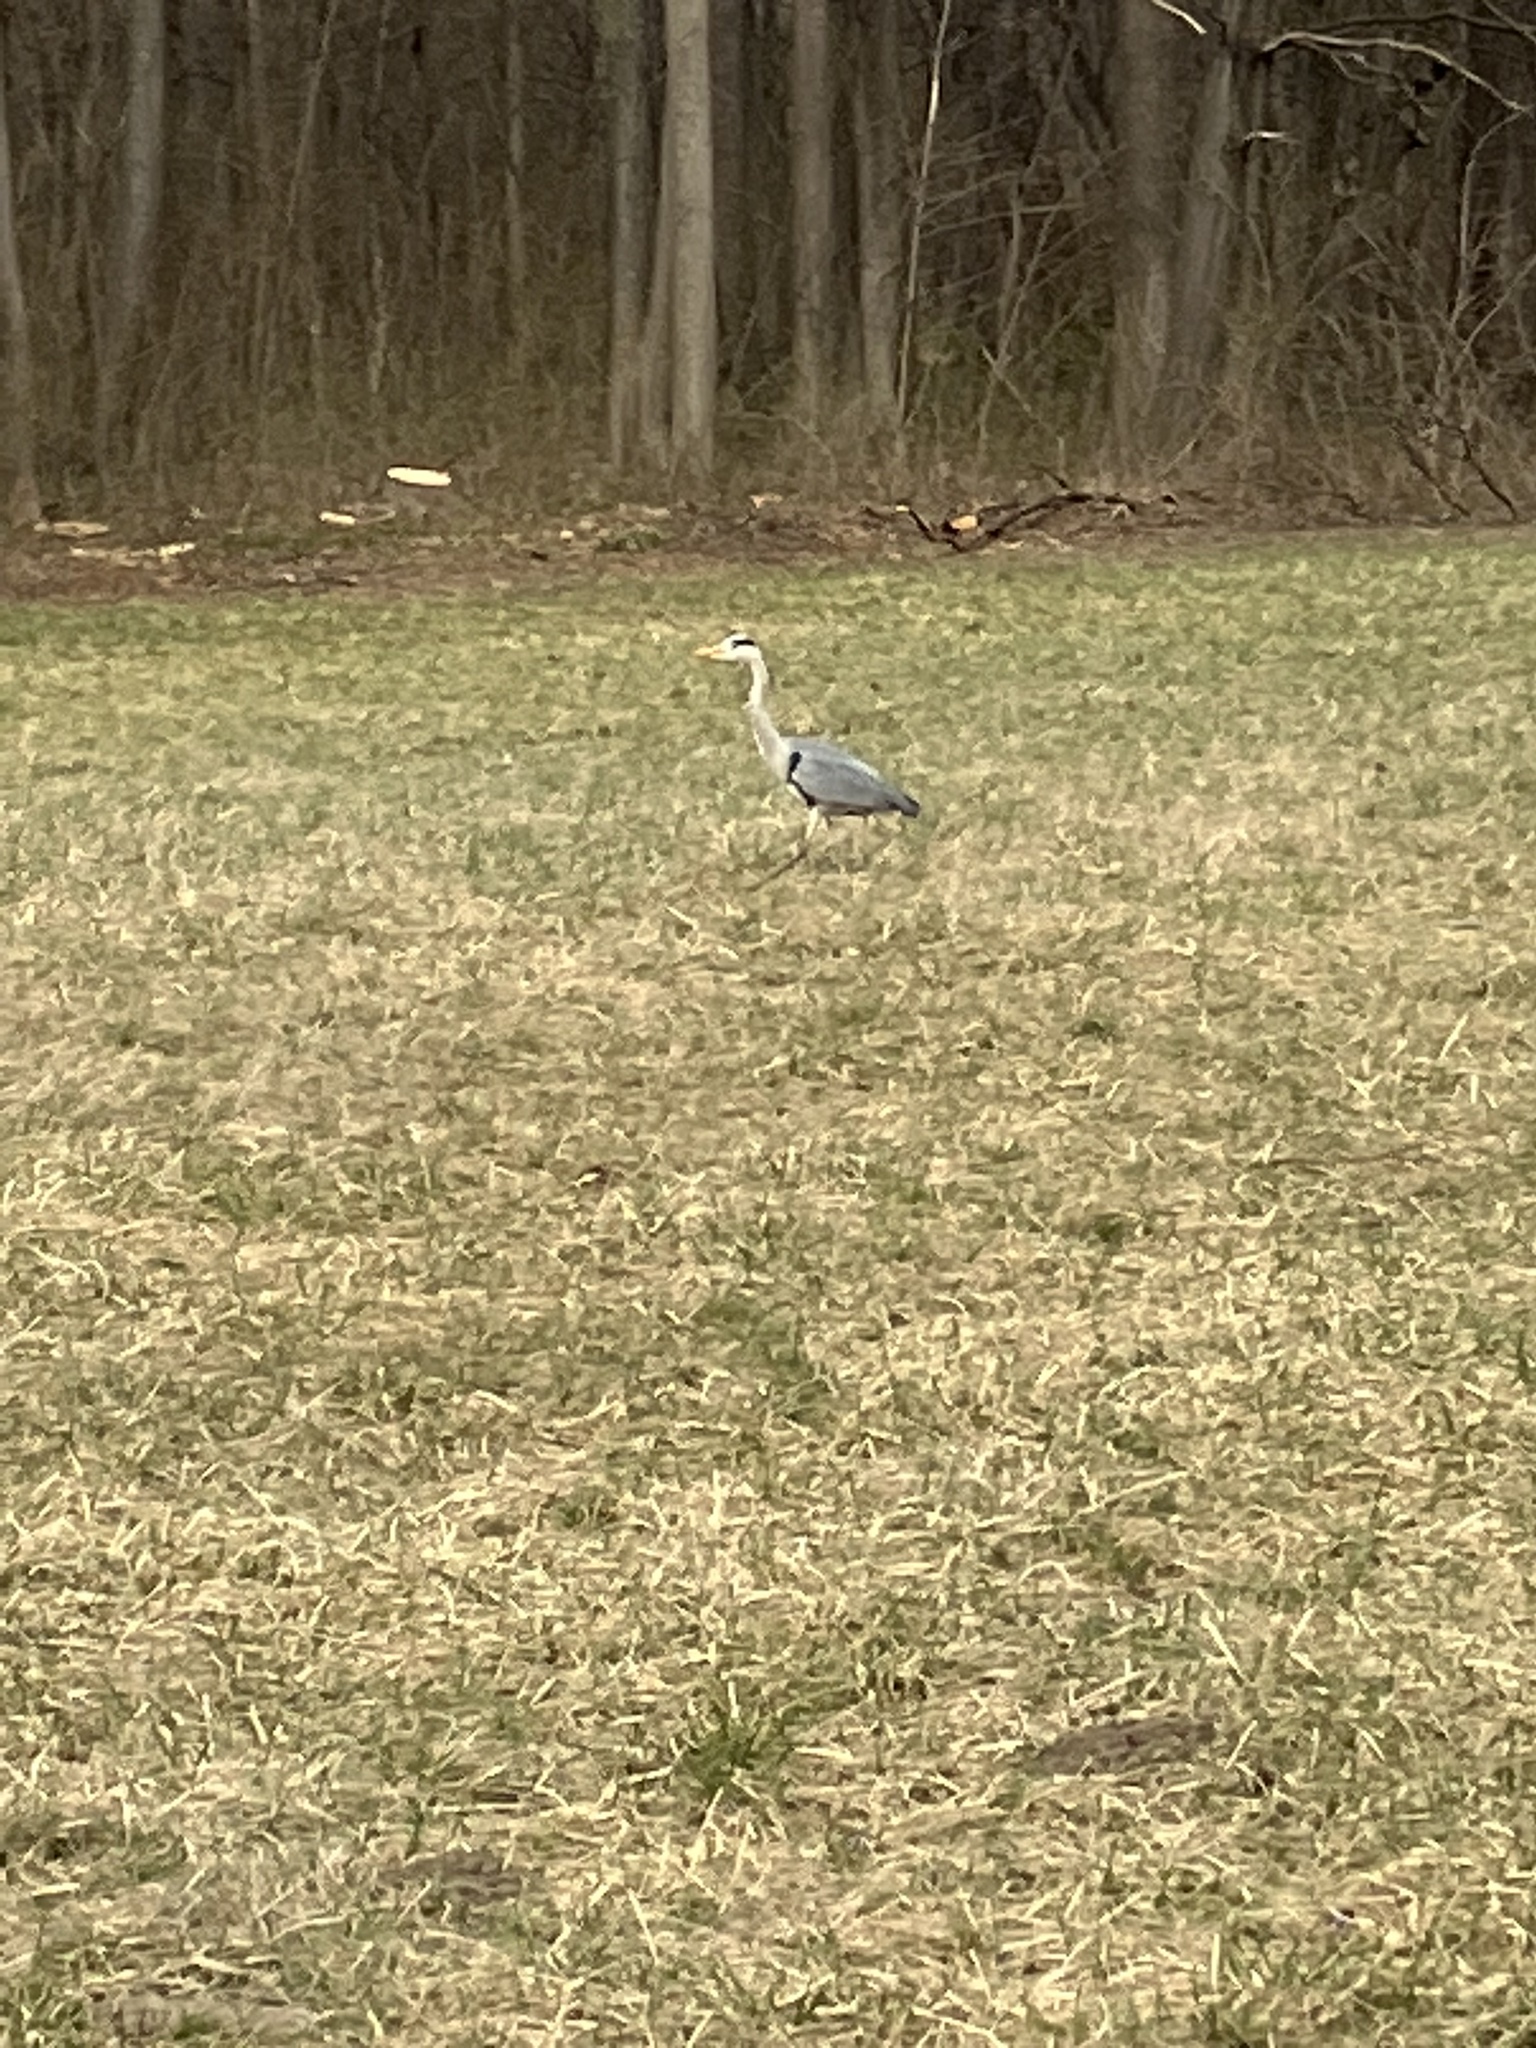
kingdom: Animalia
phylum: Chordata
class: Aves
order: Pelecaniformes
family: Ardeidae
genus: Ardea
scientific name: Ardea cinerea
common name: Grey heron
